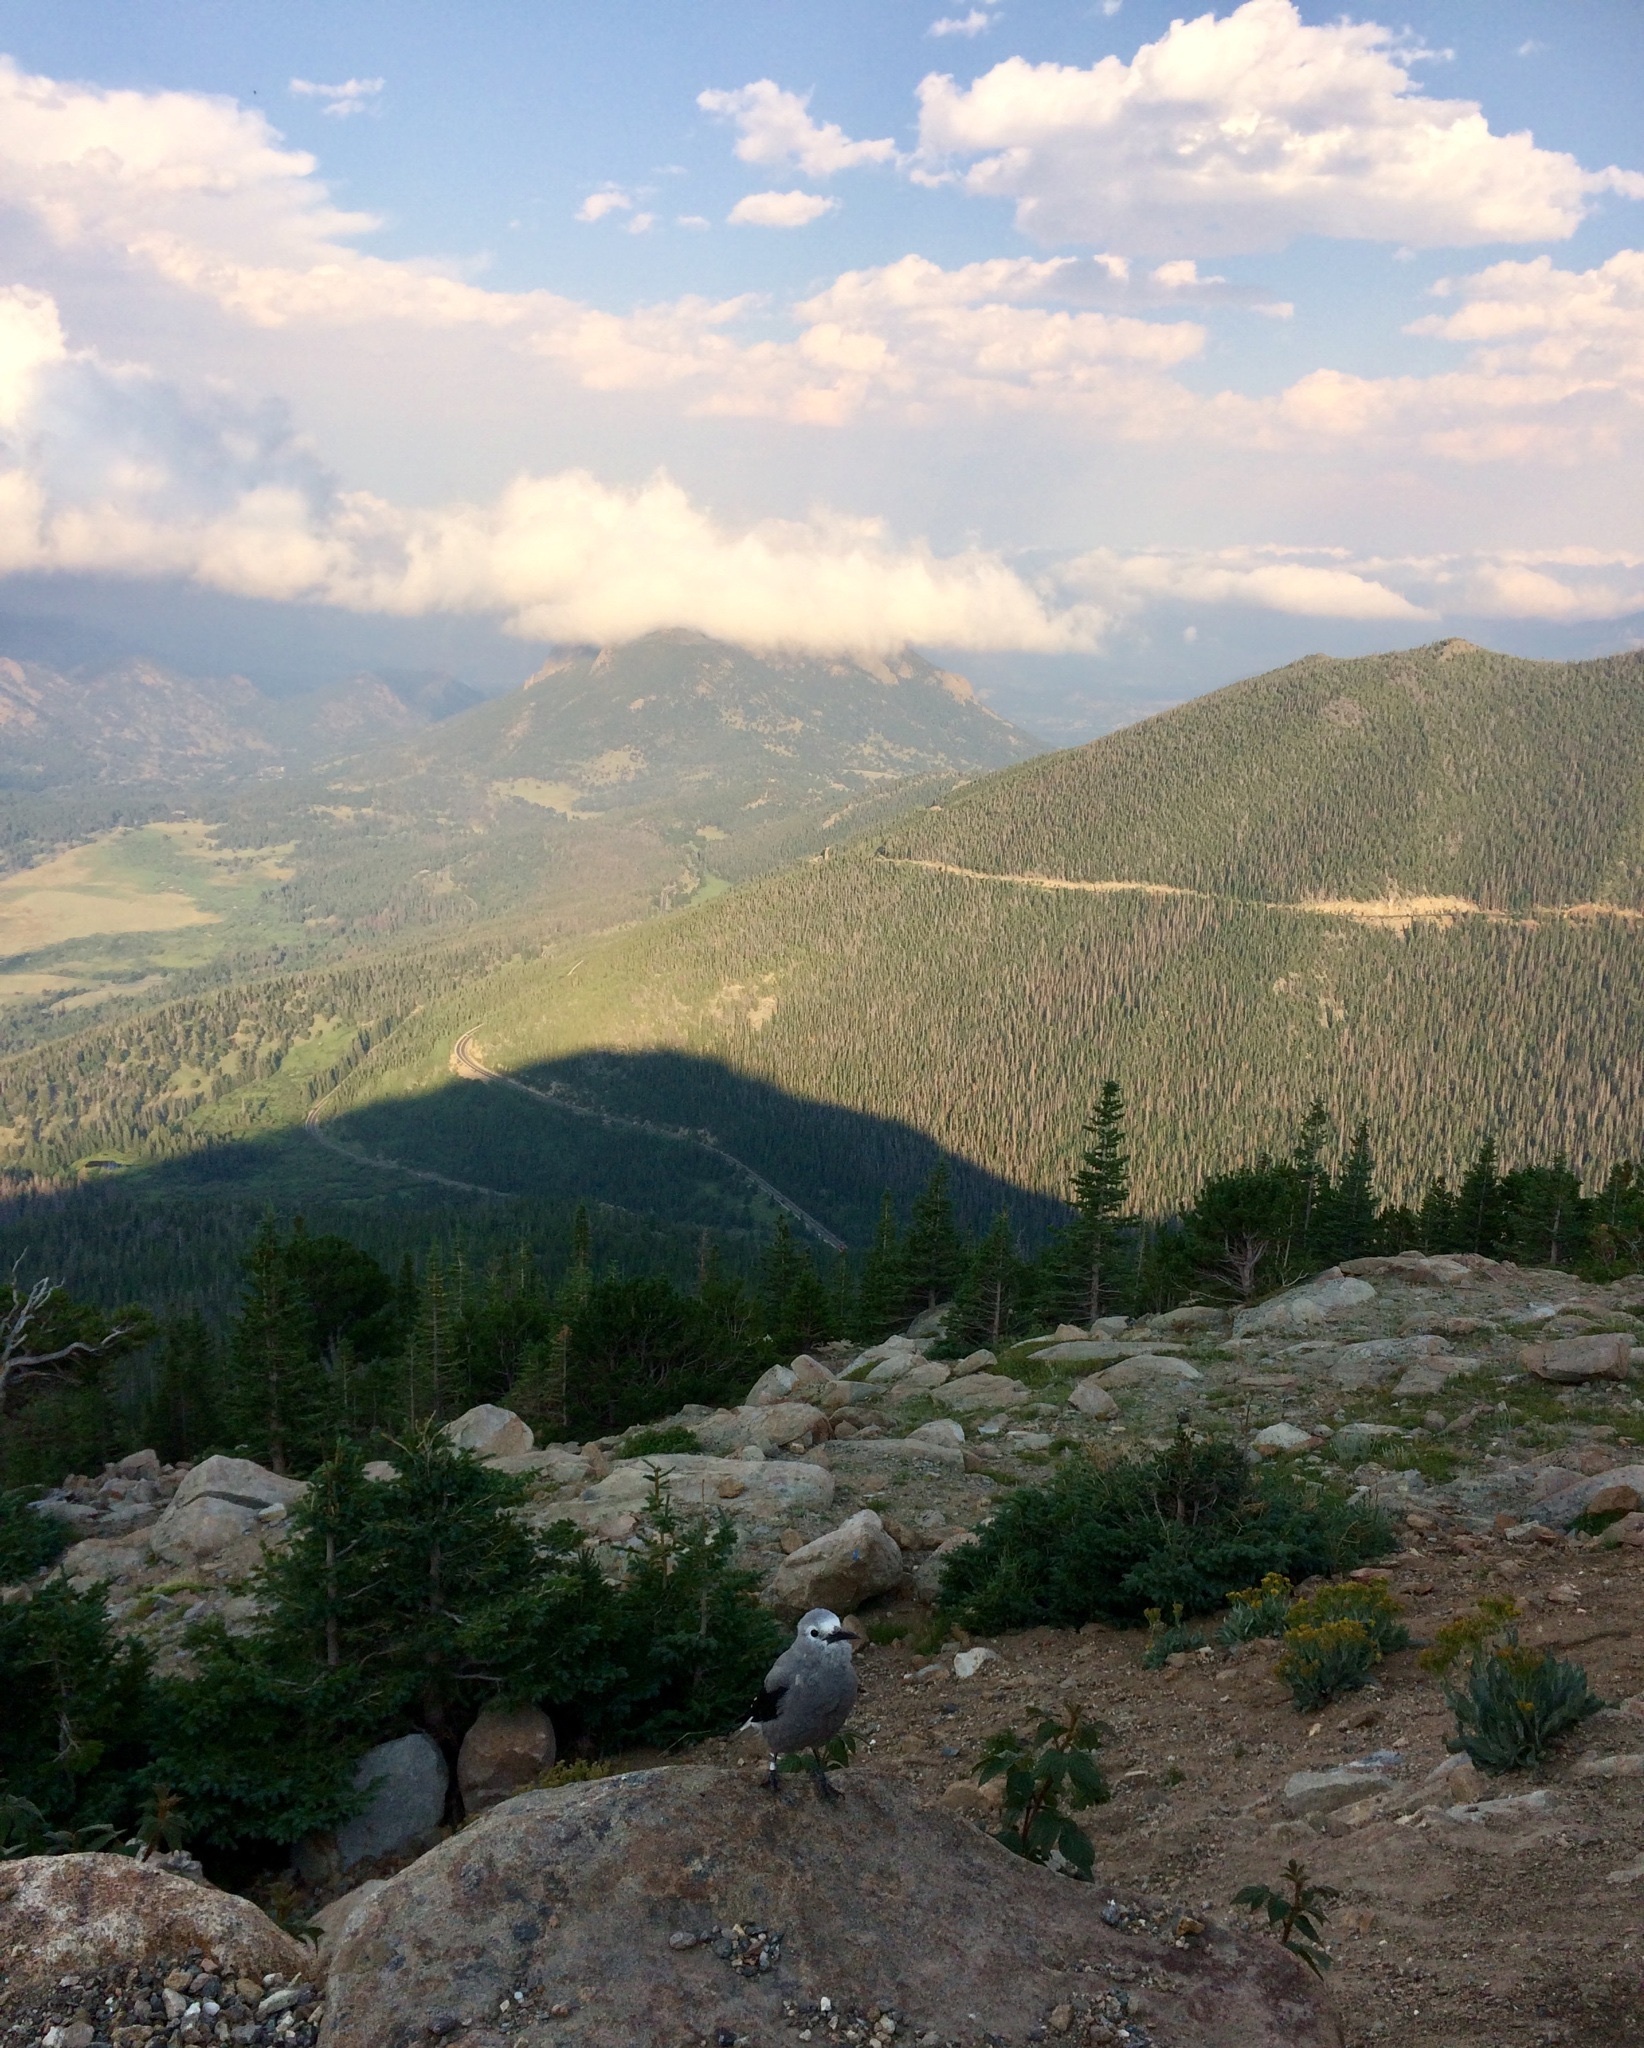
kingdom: Animalia
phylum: Chordata
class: Aves
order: Passeriformes
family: Corvidae
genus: Nucifraga
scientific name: Nucifraga columbiana
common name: Clark's nutcracker
